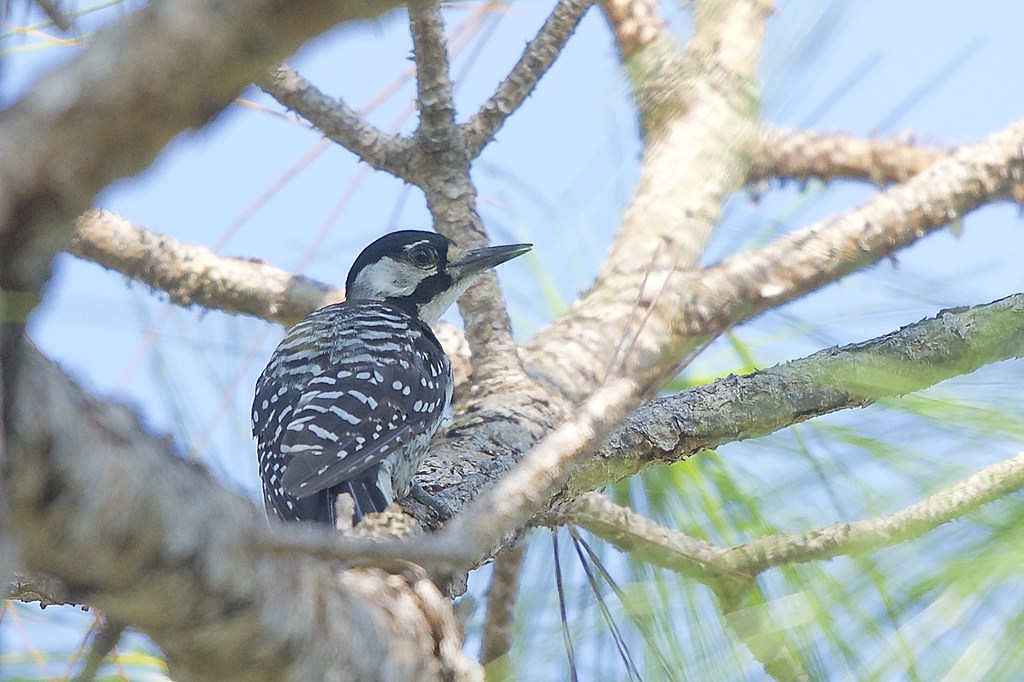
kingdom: Animalia
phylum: Chordata
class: Aves
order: Piciformes
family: Picidae
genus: Leuconotopicus
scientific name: Leuconotopicus borealis
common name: Red-cockaded woodpecker
